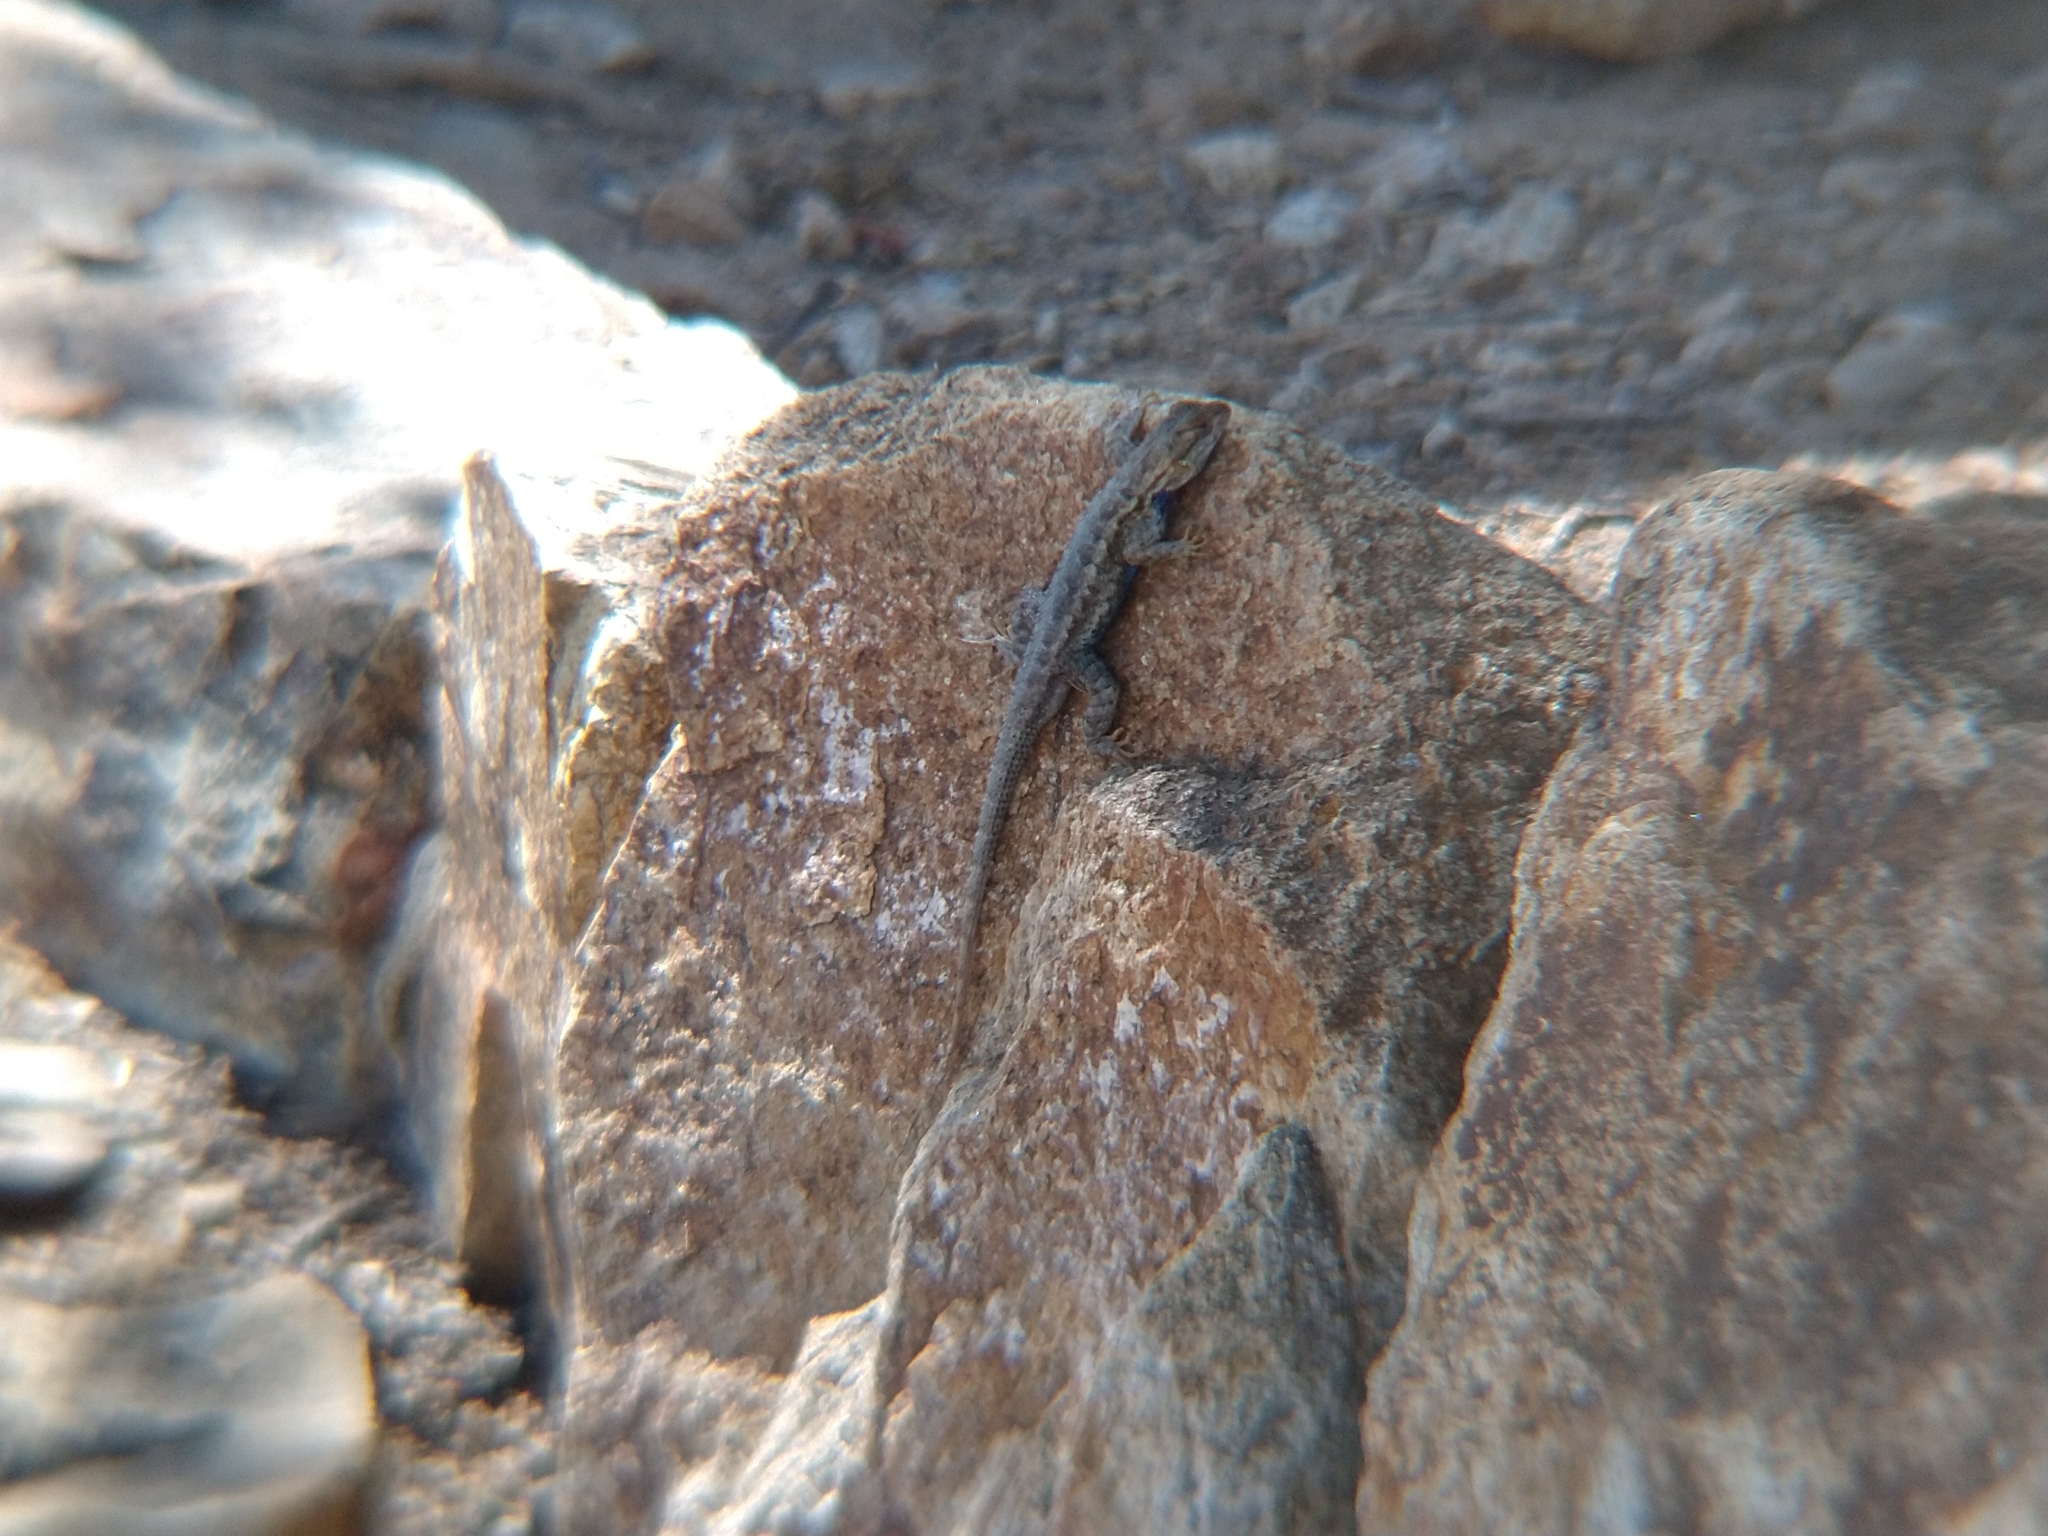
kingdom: Animalia
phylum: Chordata
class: Squamata
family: Phrynosomatidae
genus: Sceloporus
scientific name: Sceloporus occidentalis
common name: Western fence lizard
